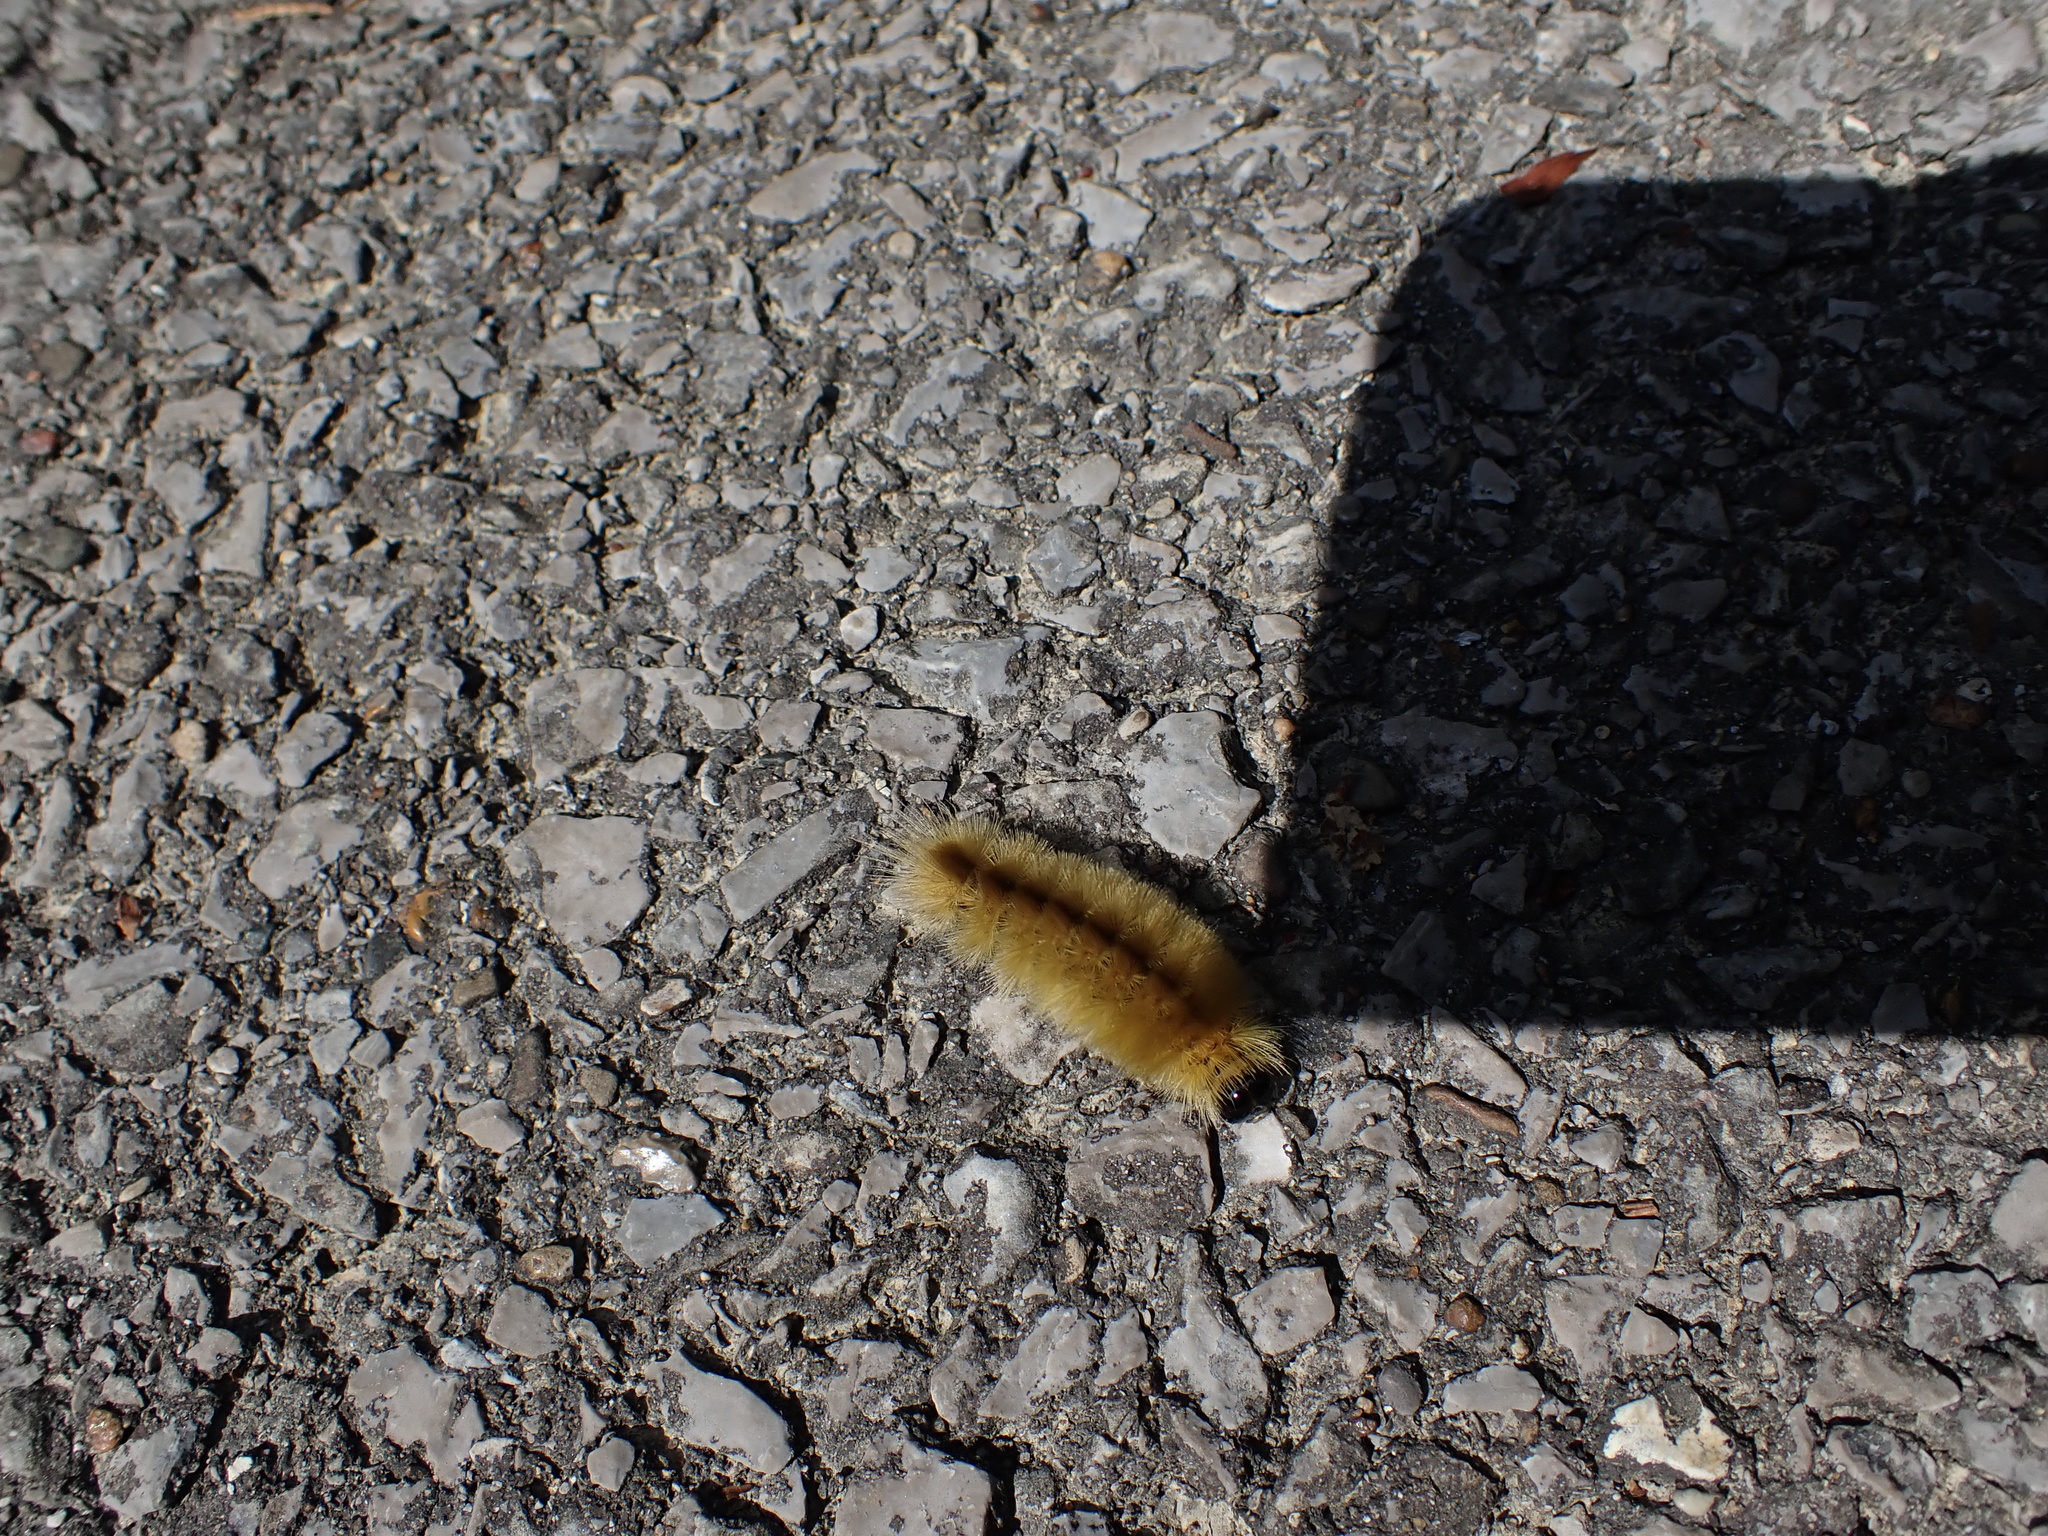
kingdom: Animalia
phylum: Arthropoda
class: Insecta
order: Lepidoptera
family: Erebidae
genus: Halysidota
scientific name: Halysidota tessellaris
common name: Banded tussock moth
